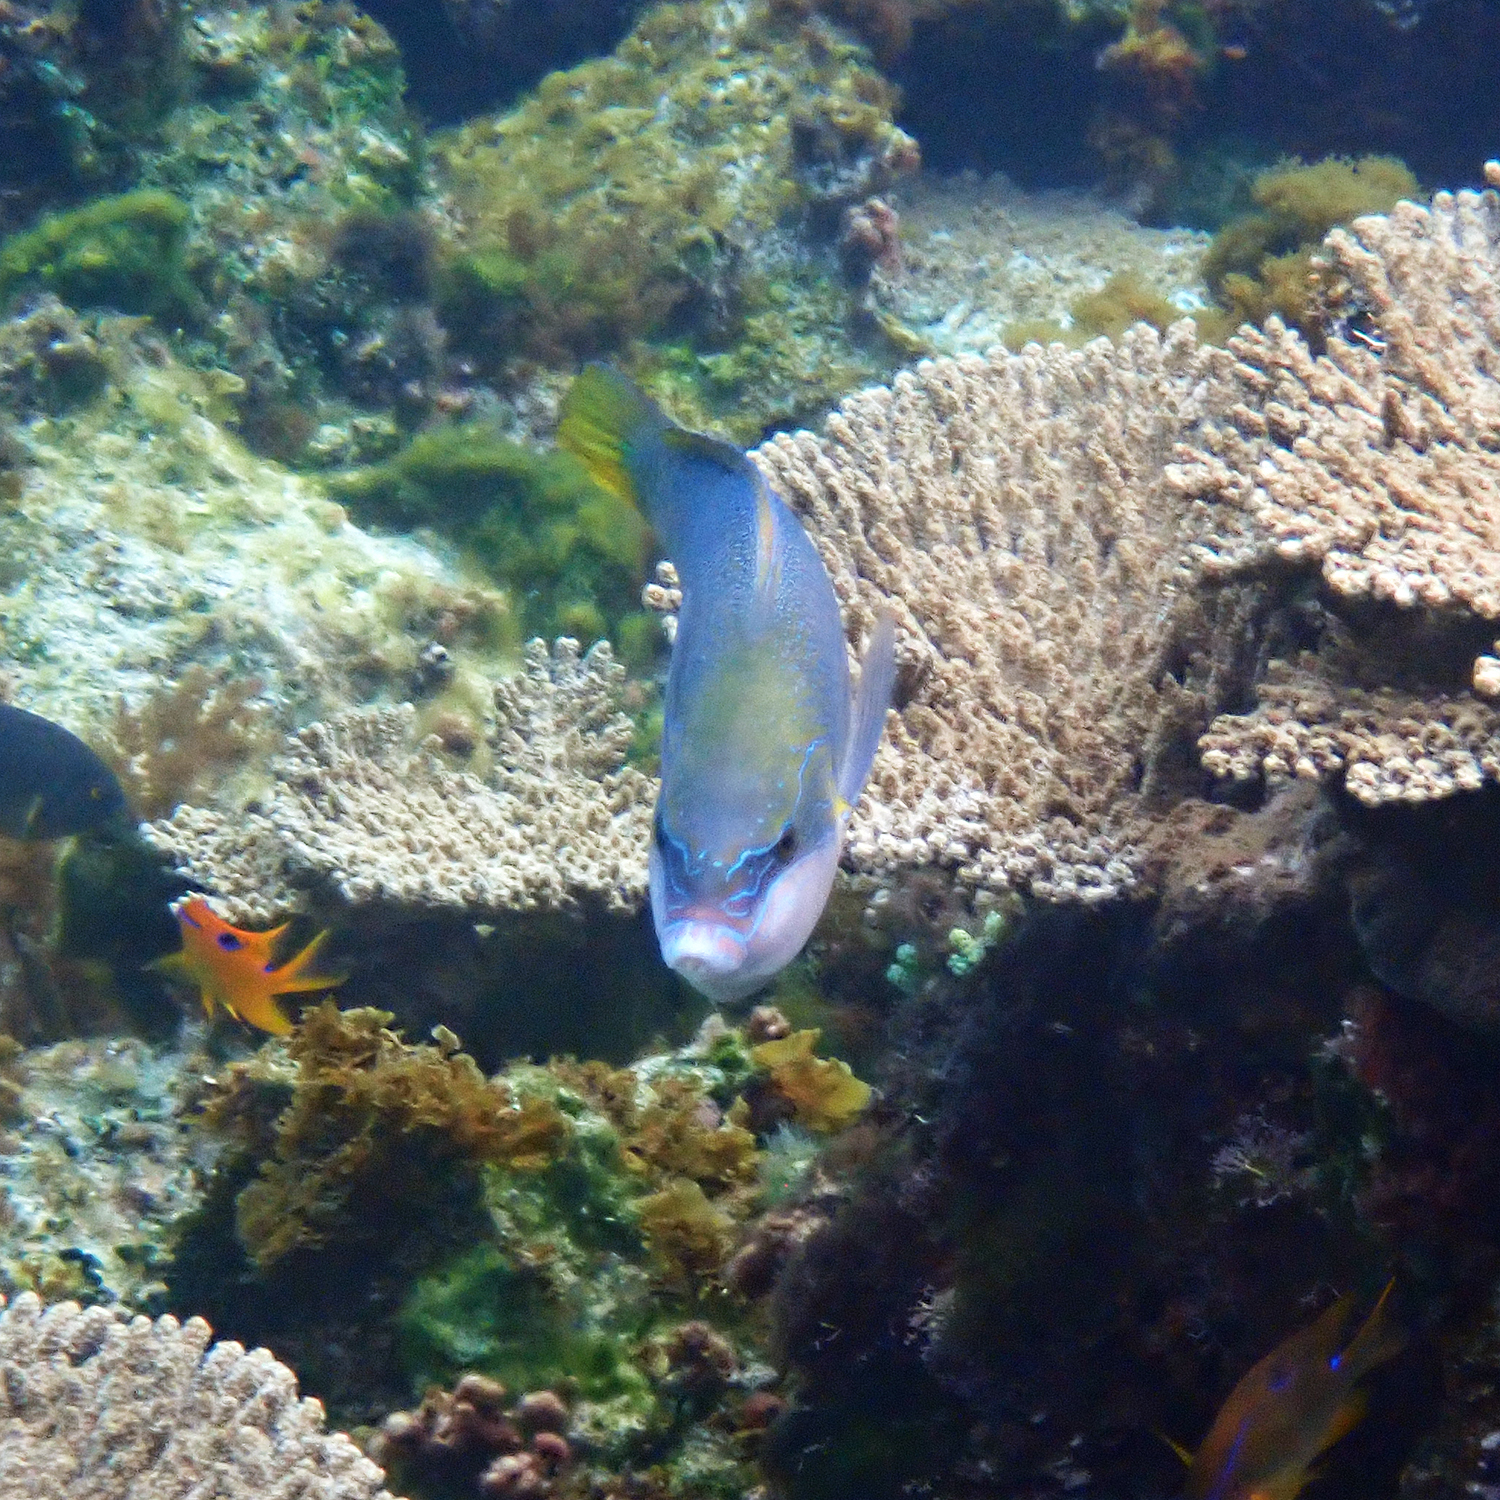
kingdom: Animalia
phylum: Chordata
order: Perciformes
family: Labridae
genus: Anampses
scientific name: Anampses elegans
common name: Elegant wrasse
